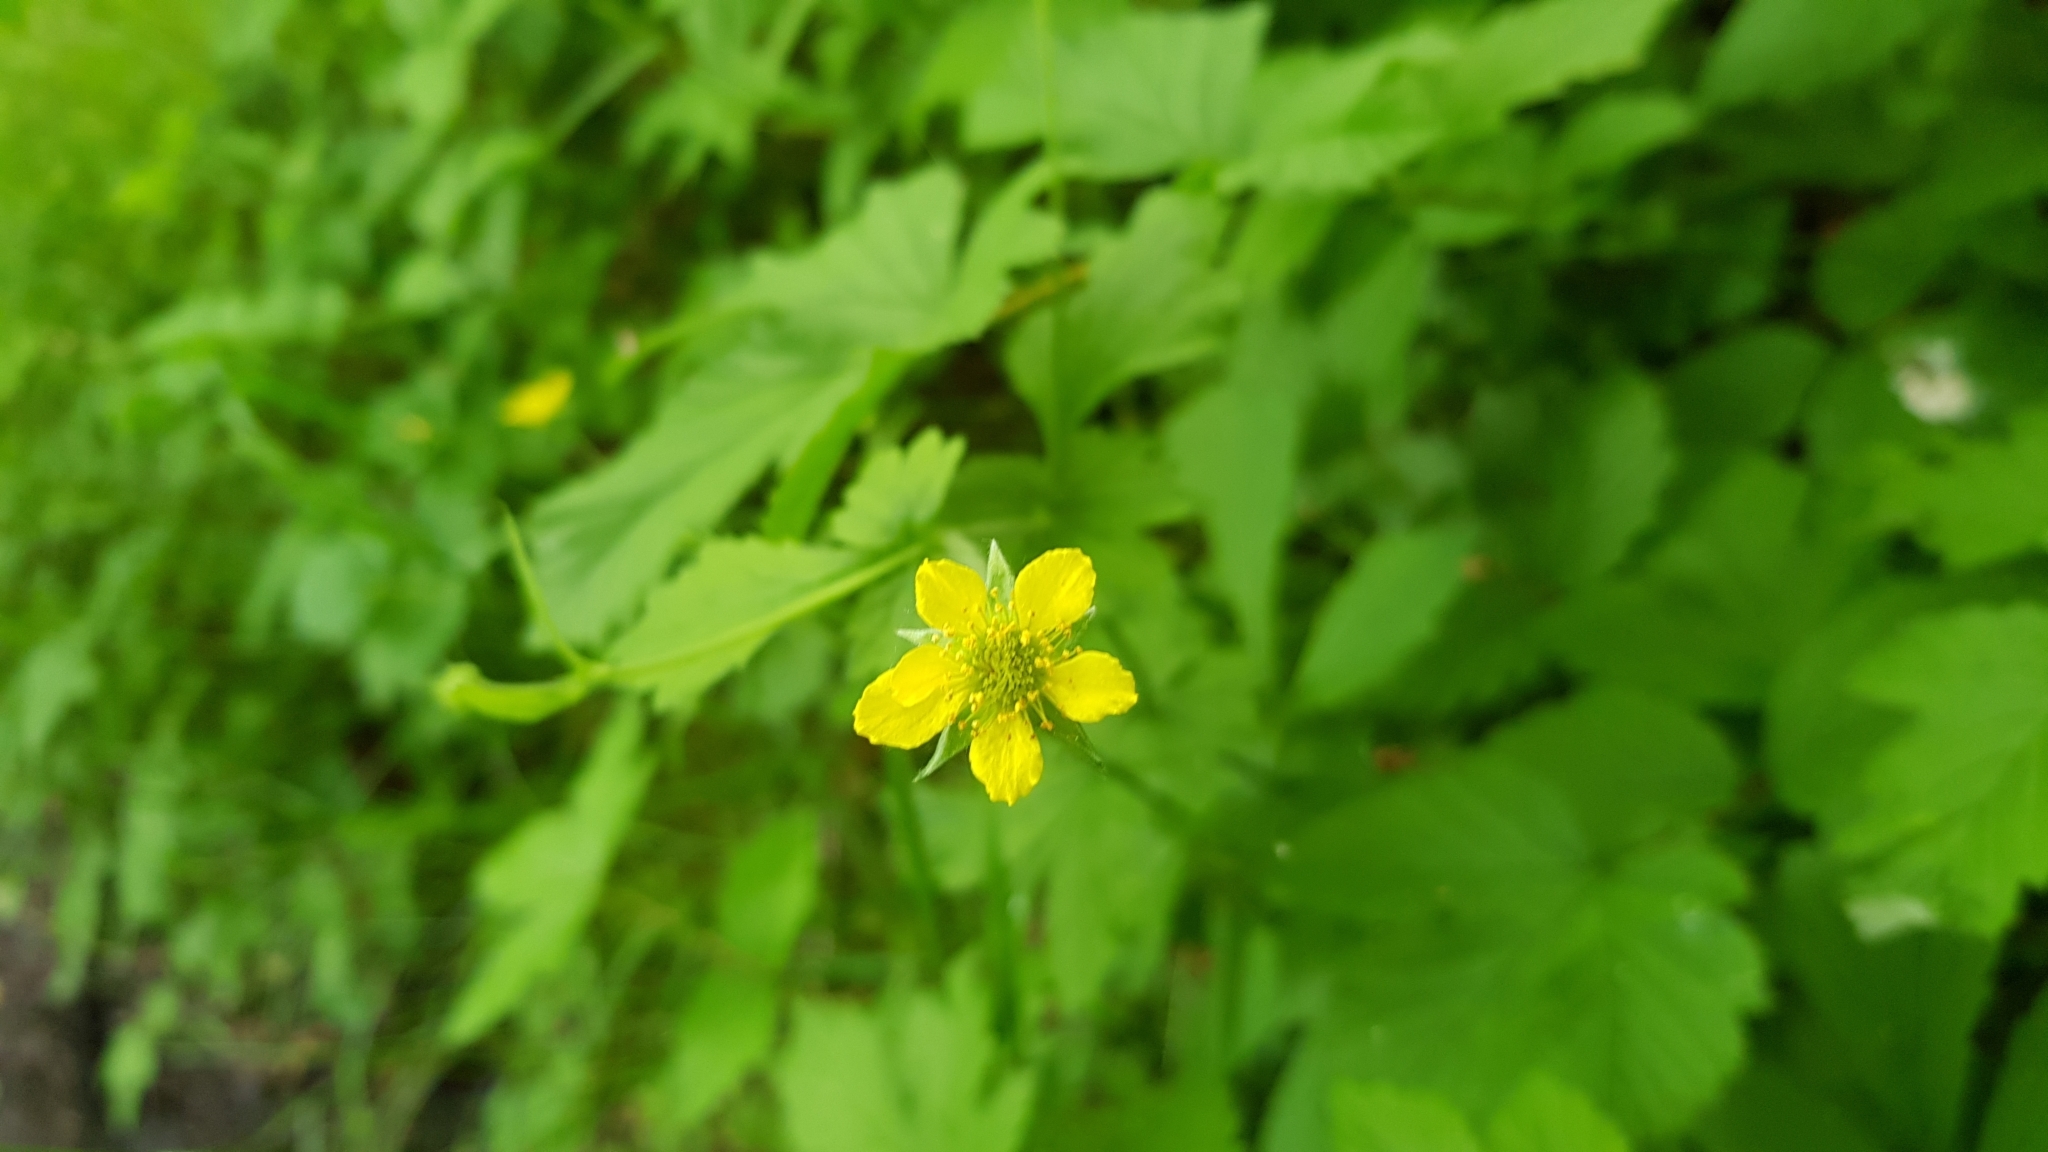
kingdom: Plantae
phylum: Tracheophyta
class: Magnoliopsida
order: Rosales
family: Rosaceae
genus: Geum
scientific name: Geum urbanum
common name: Wood avens
